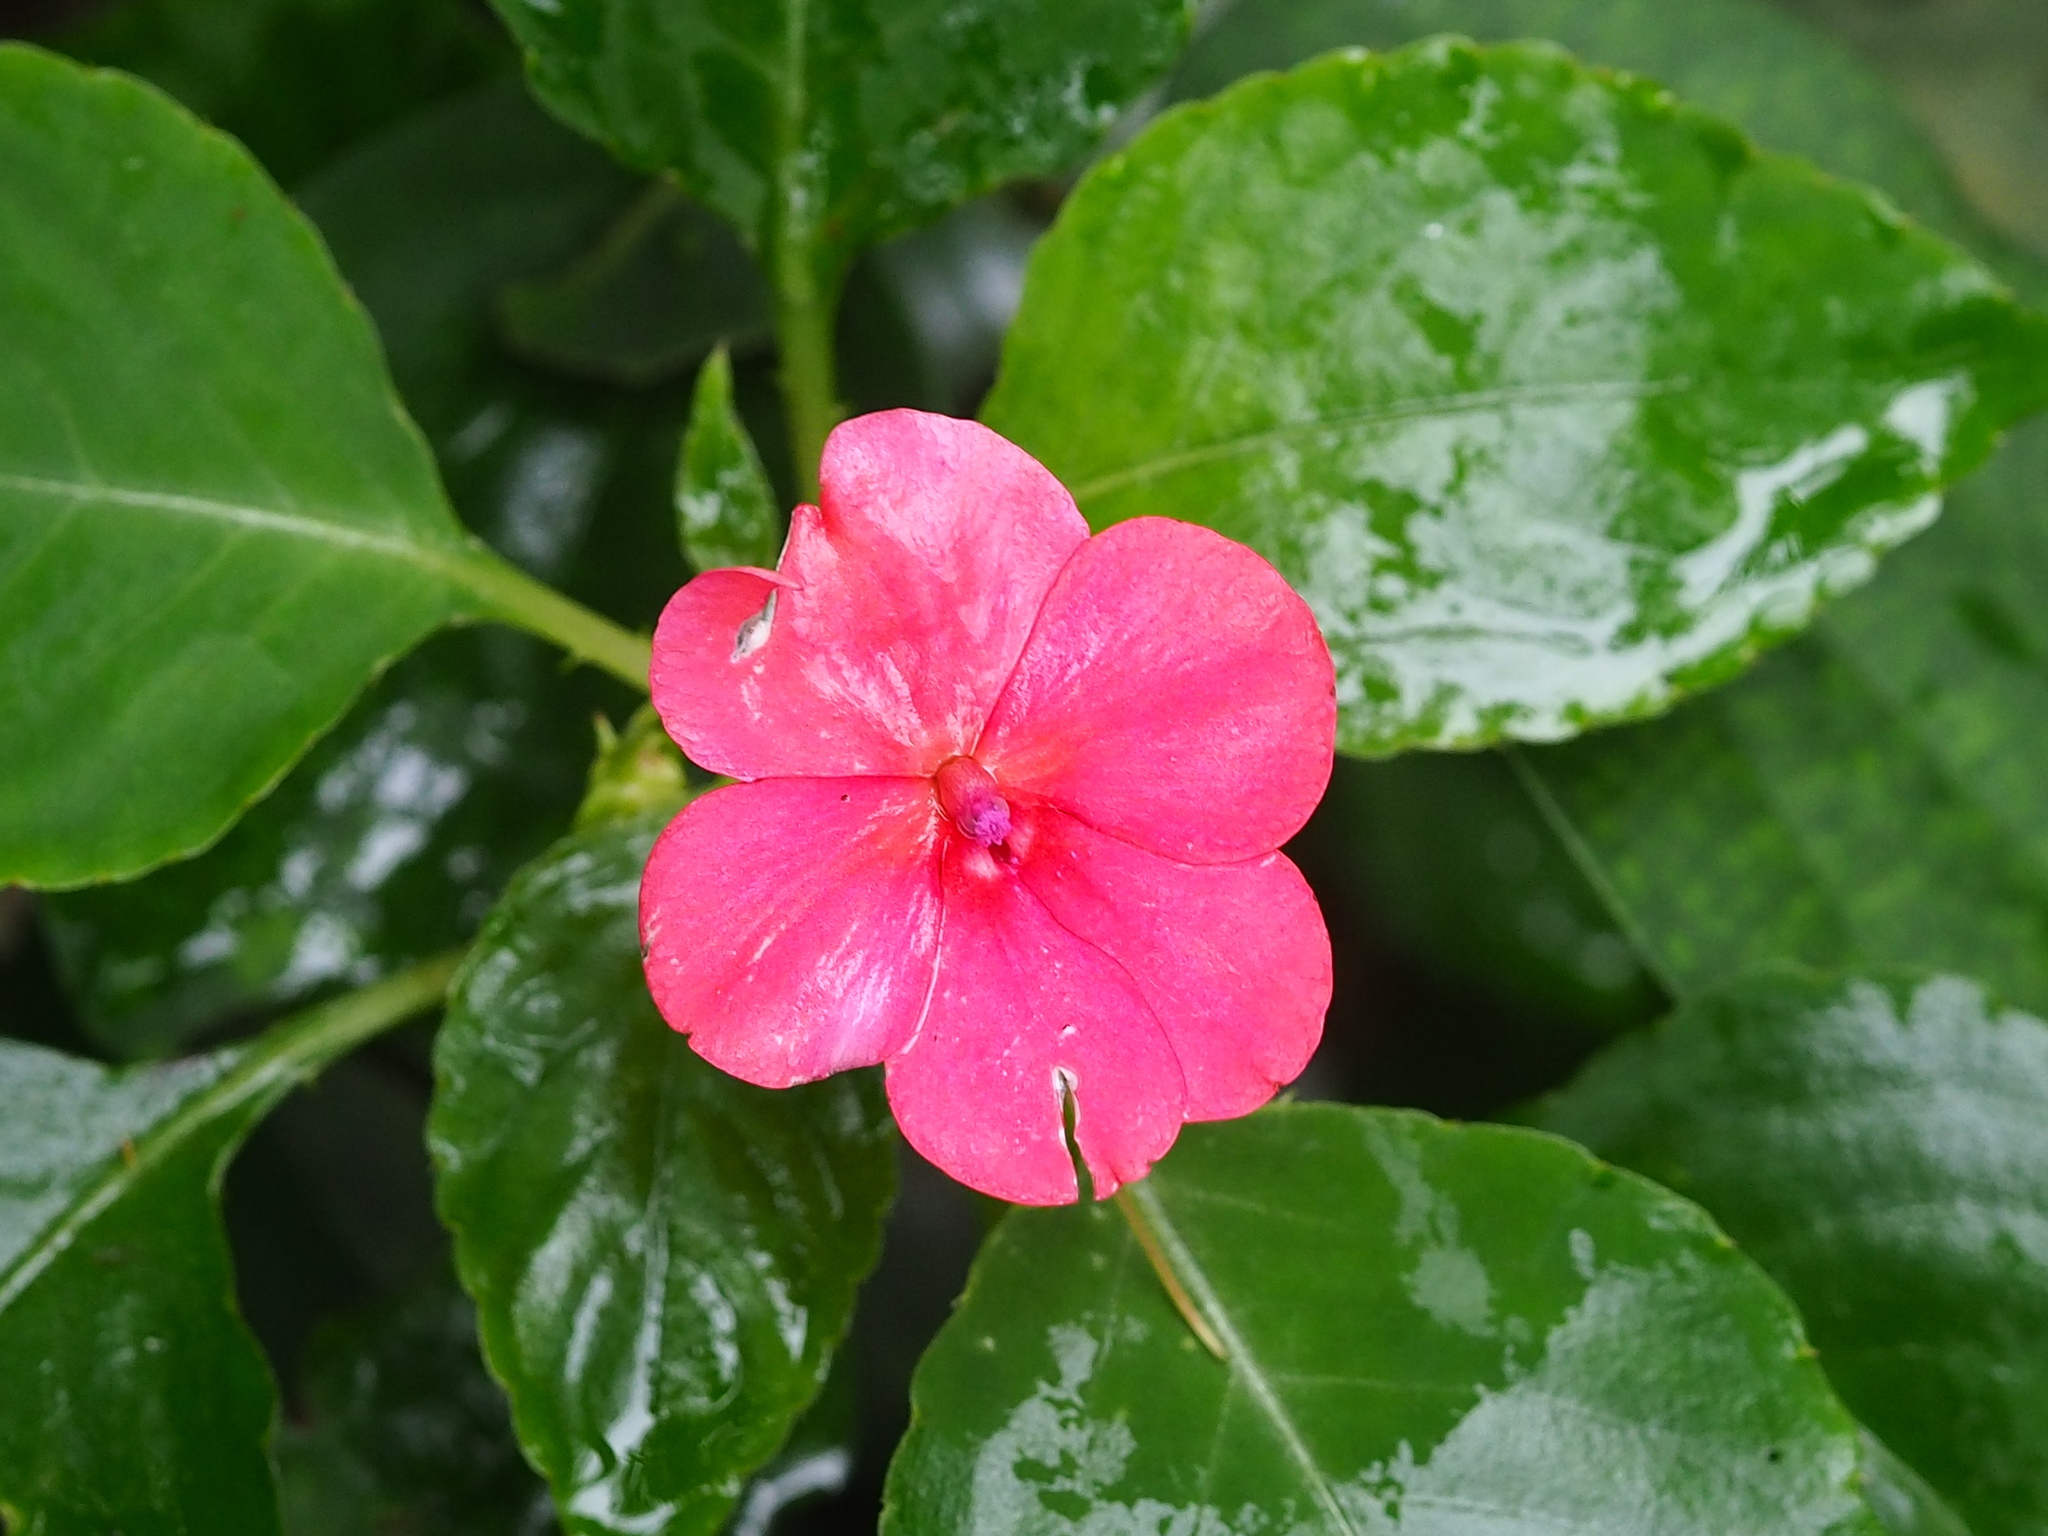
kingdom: Plantae
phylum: Tracheophyta
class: Magnoliopsida
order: Ericales
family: Balsaminaceae
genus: Impatiens
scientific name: Impatiens walleriana
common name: Buzzy lizzy
